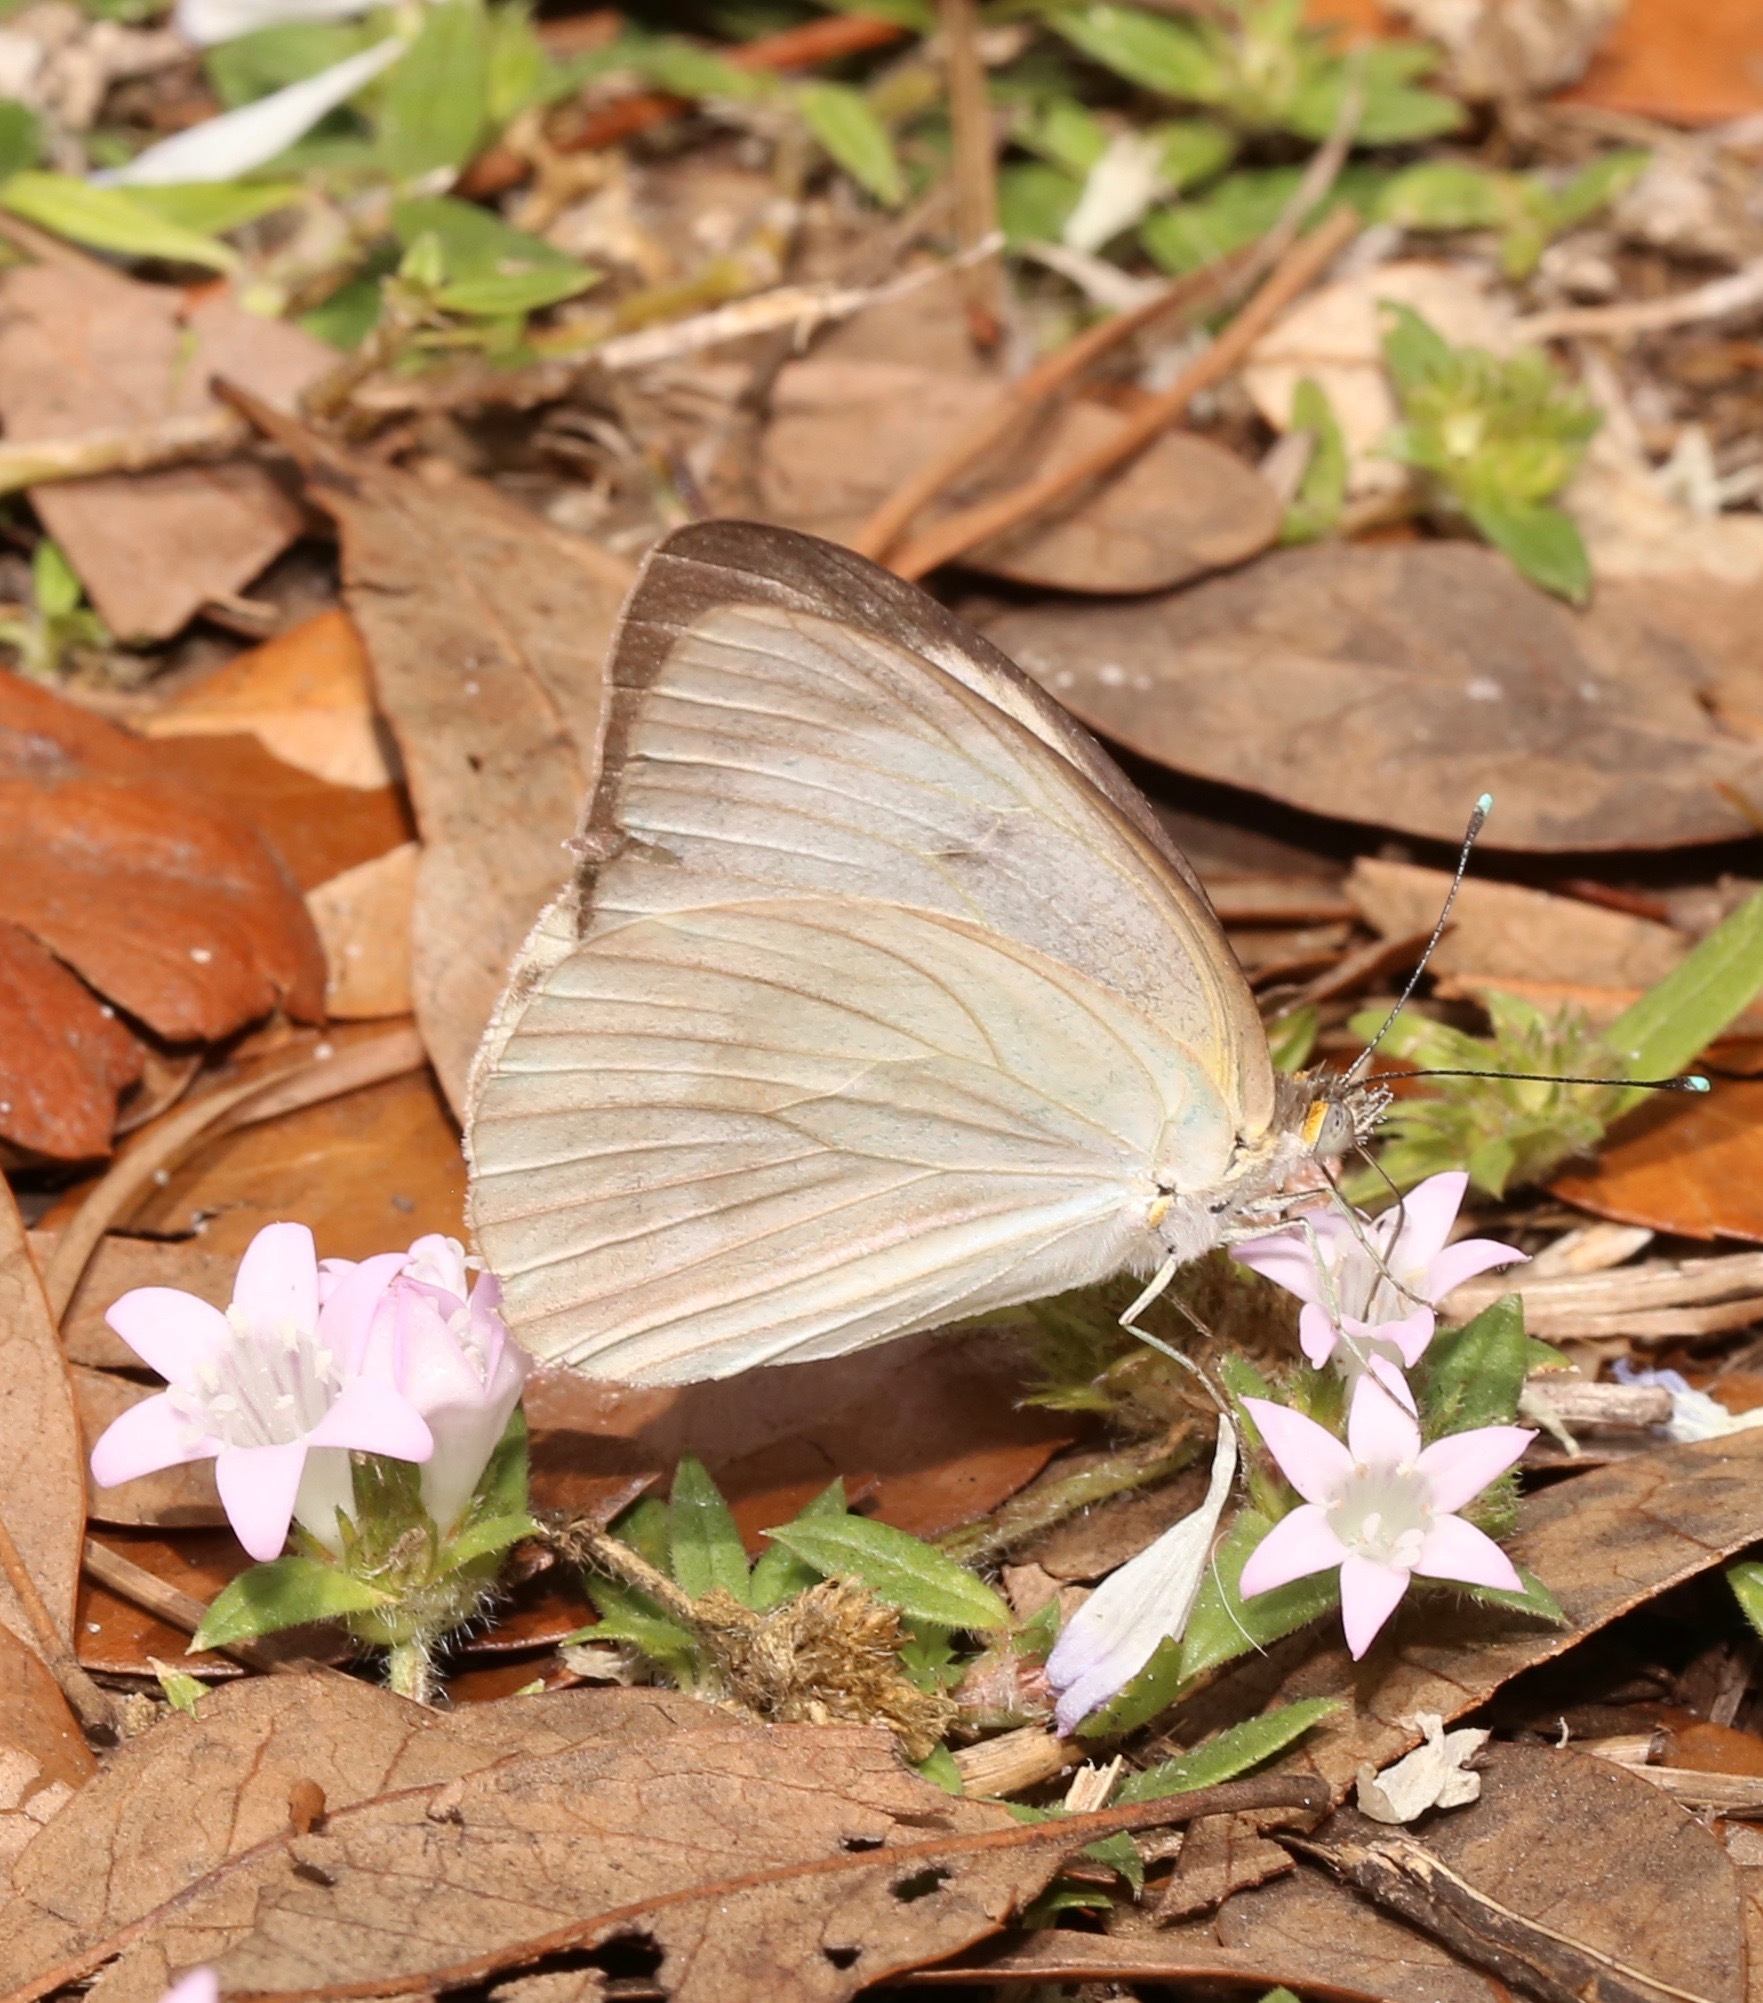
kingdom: Animalia
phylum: Arthropoda
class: Insecta
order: Lepidoptera
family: Pieridae
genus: Ascia
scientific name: Ascia monuste
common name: Great southern white
